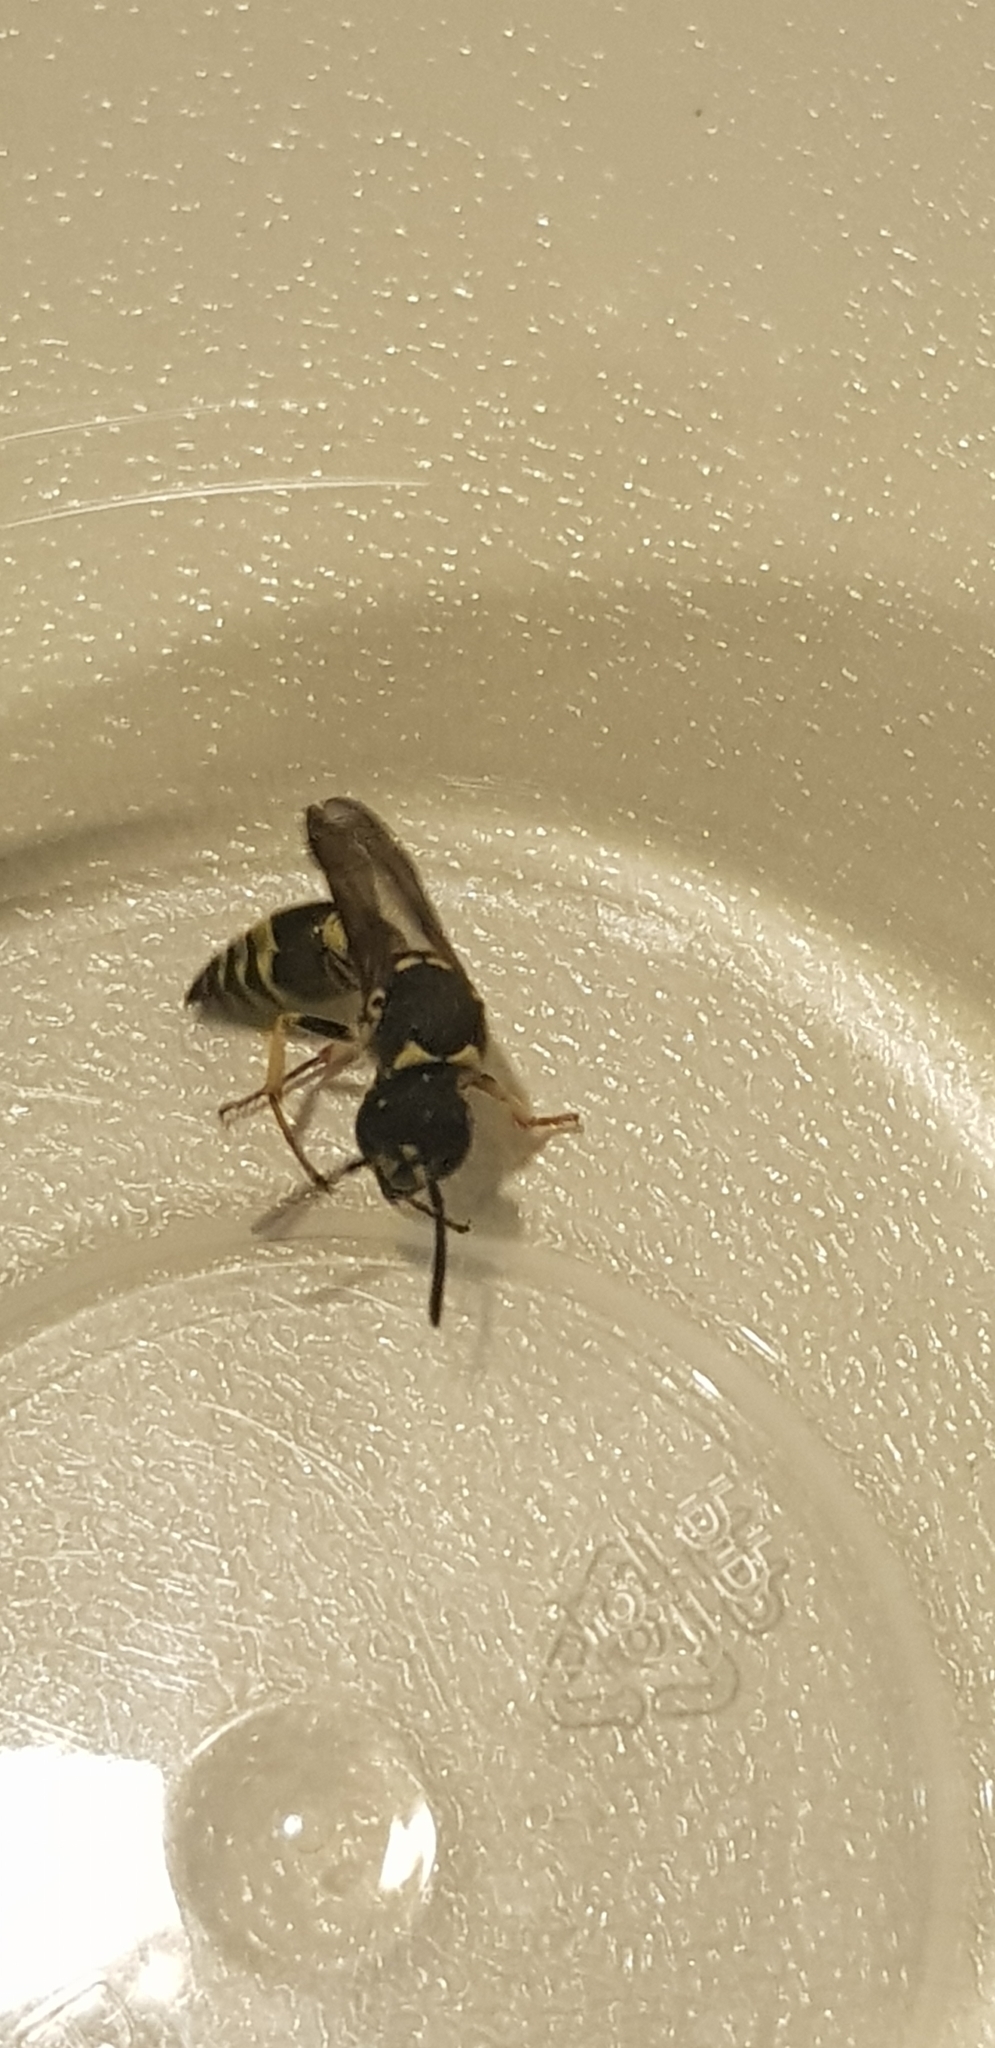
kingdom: Animalia
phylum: Arthropoda
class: Insecta
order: Hymenoptera
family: Vespidae
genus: Ancistrocerus
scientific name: Ancistrocerus gazella
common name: European tube wasp
